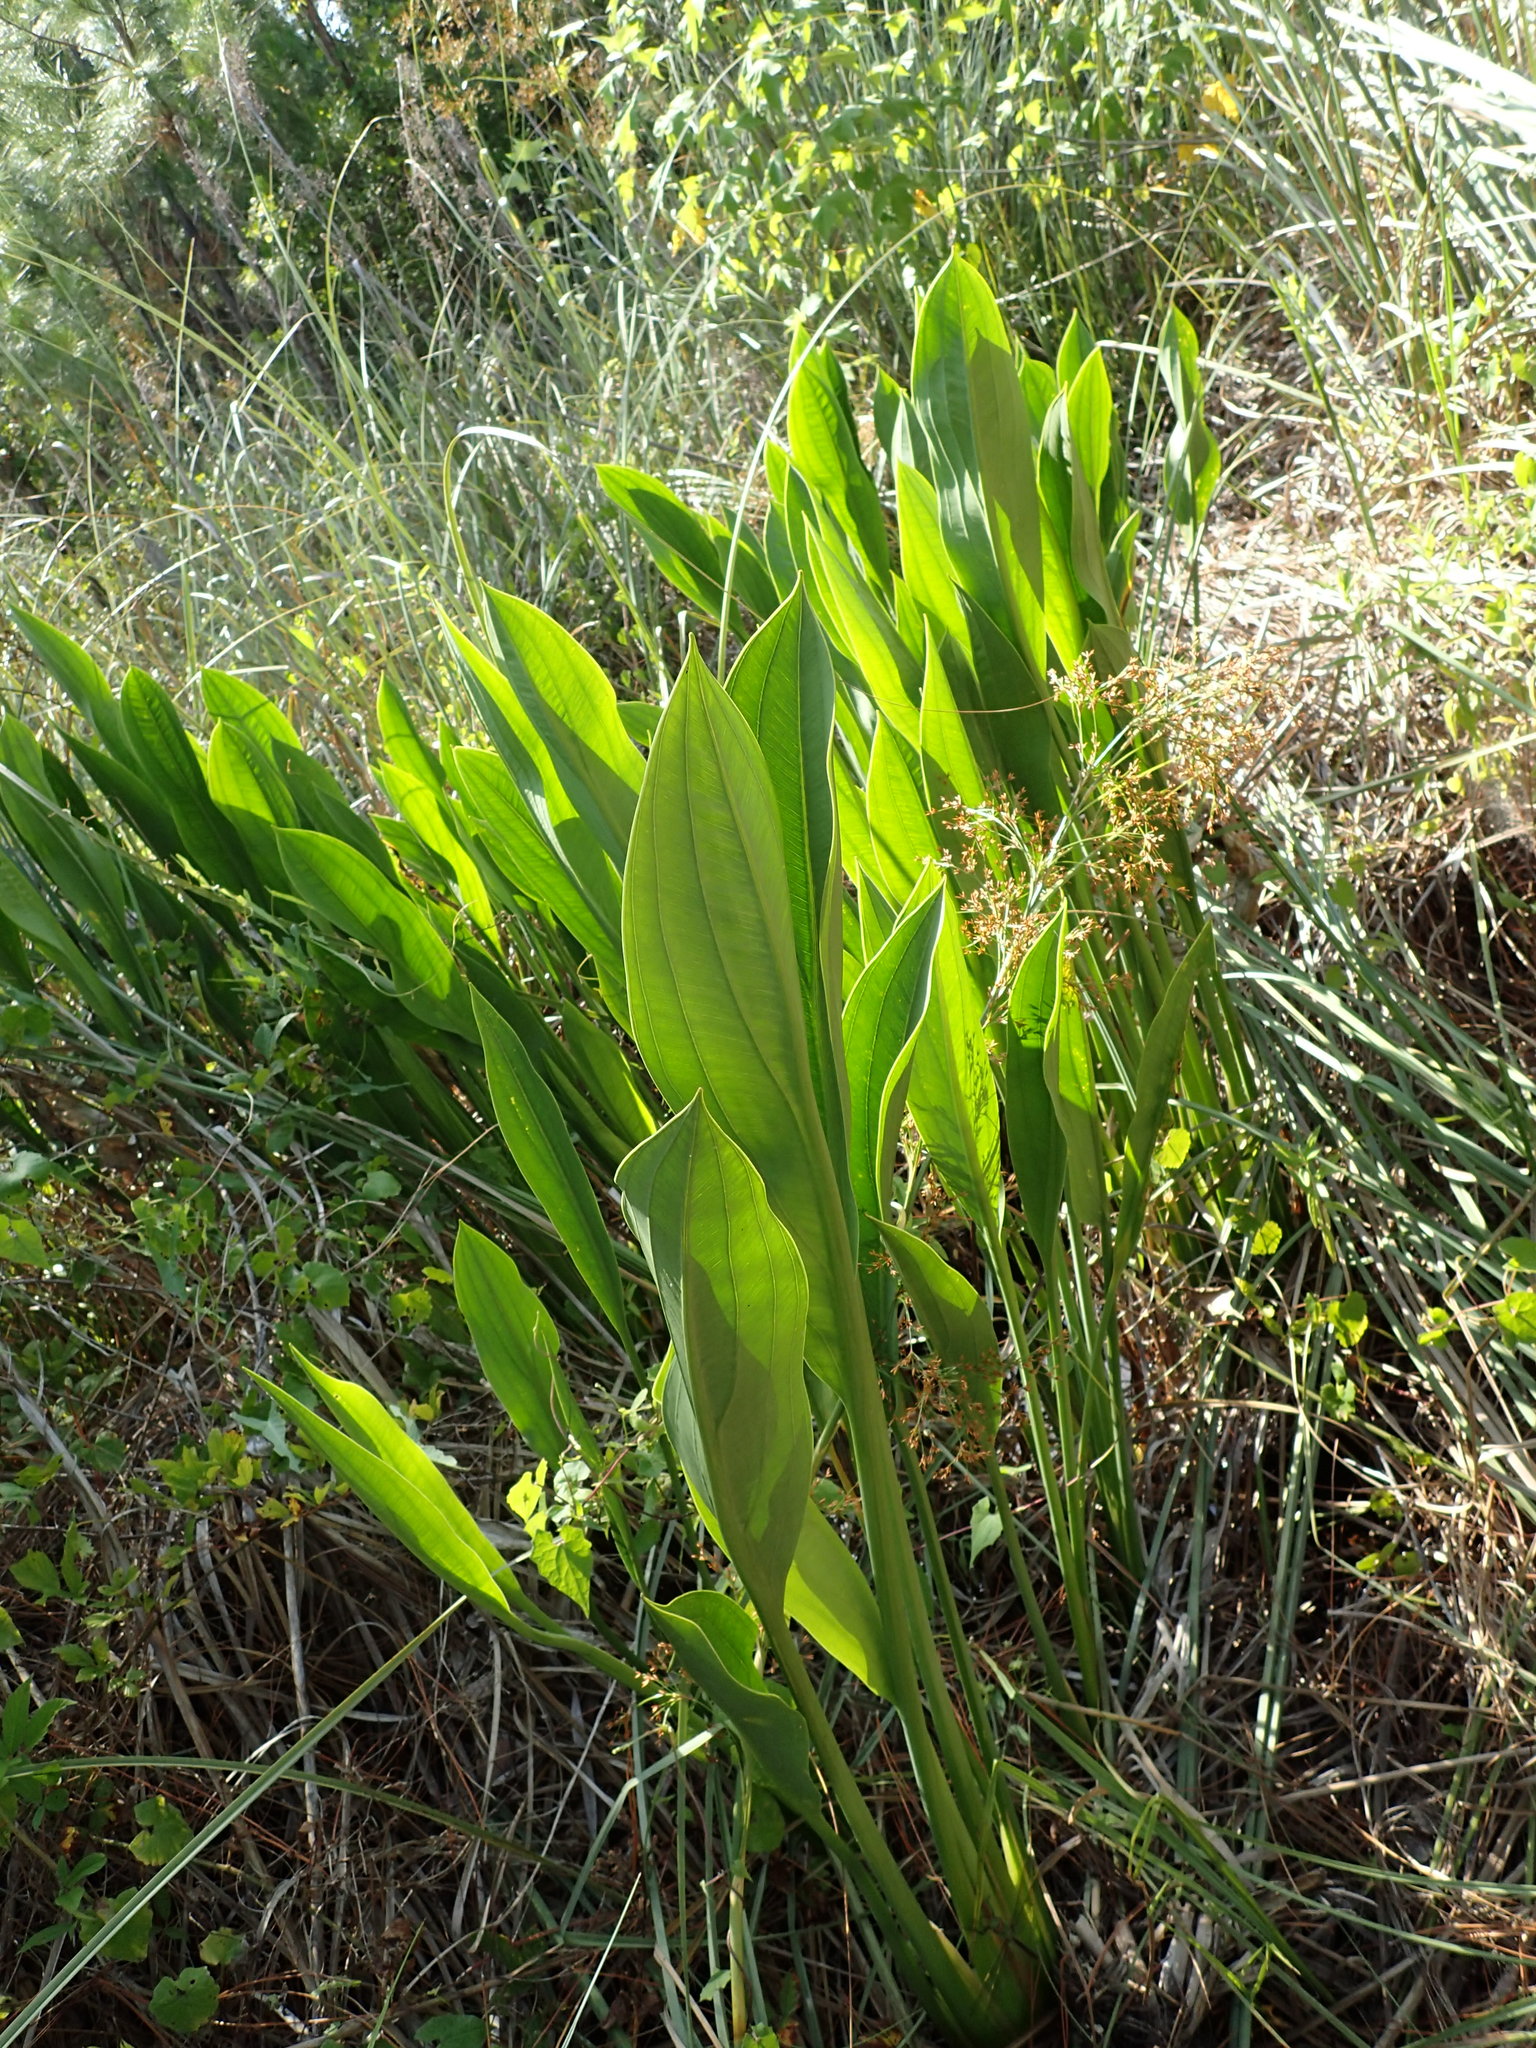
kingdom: Plantae
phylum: Tracheophyta
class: Liliopsida
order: Alismatales
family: Alismataceae
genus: Sagittaria
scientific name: Sagittaria lancifolia
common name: Lance-leaf arrowhead
